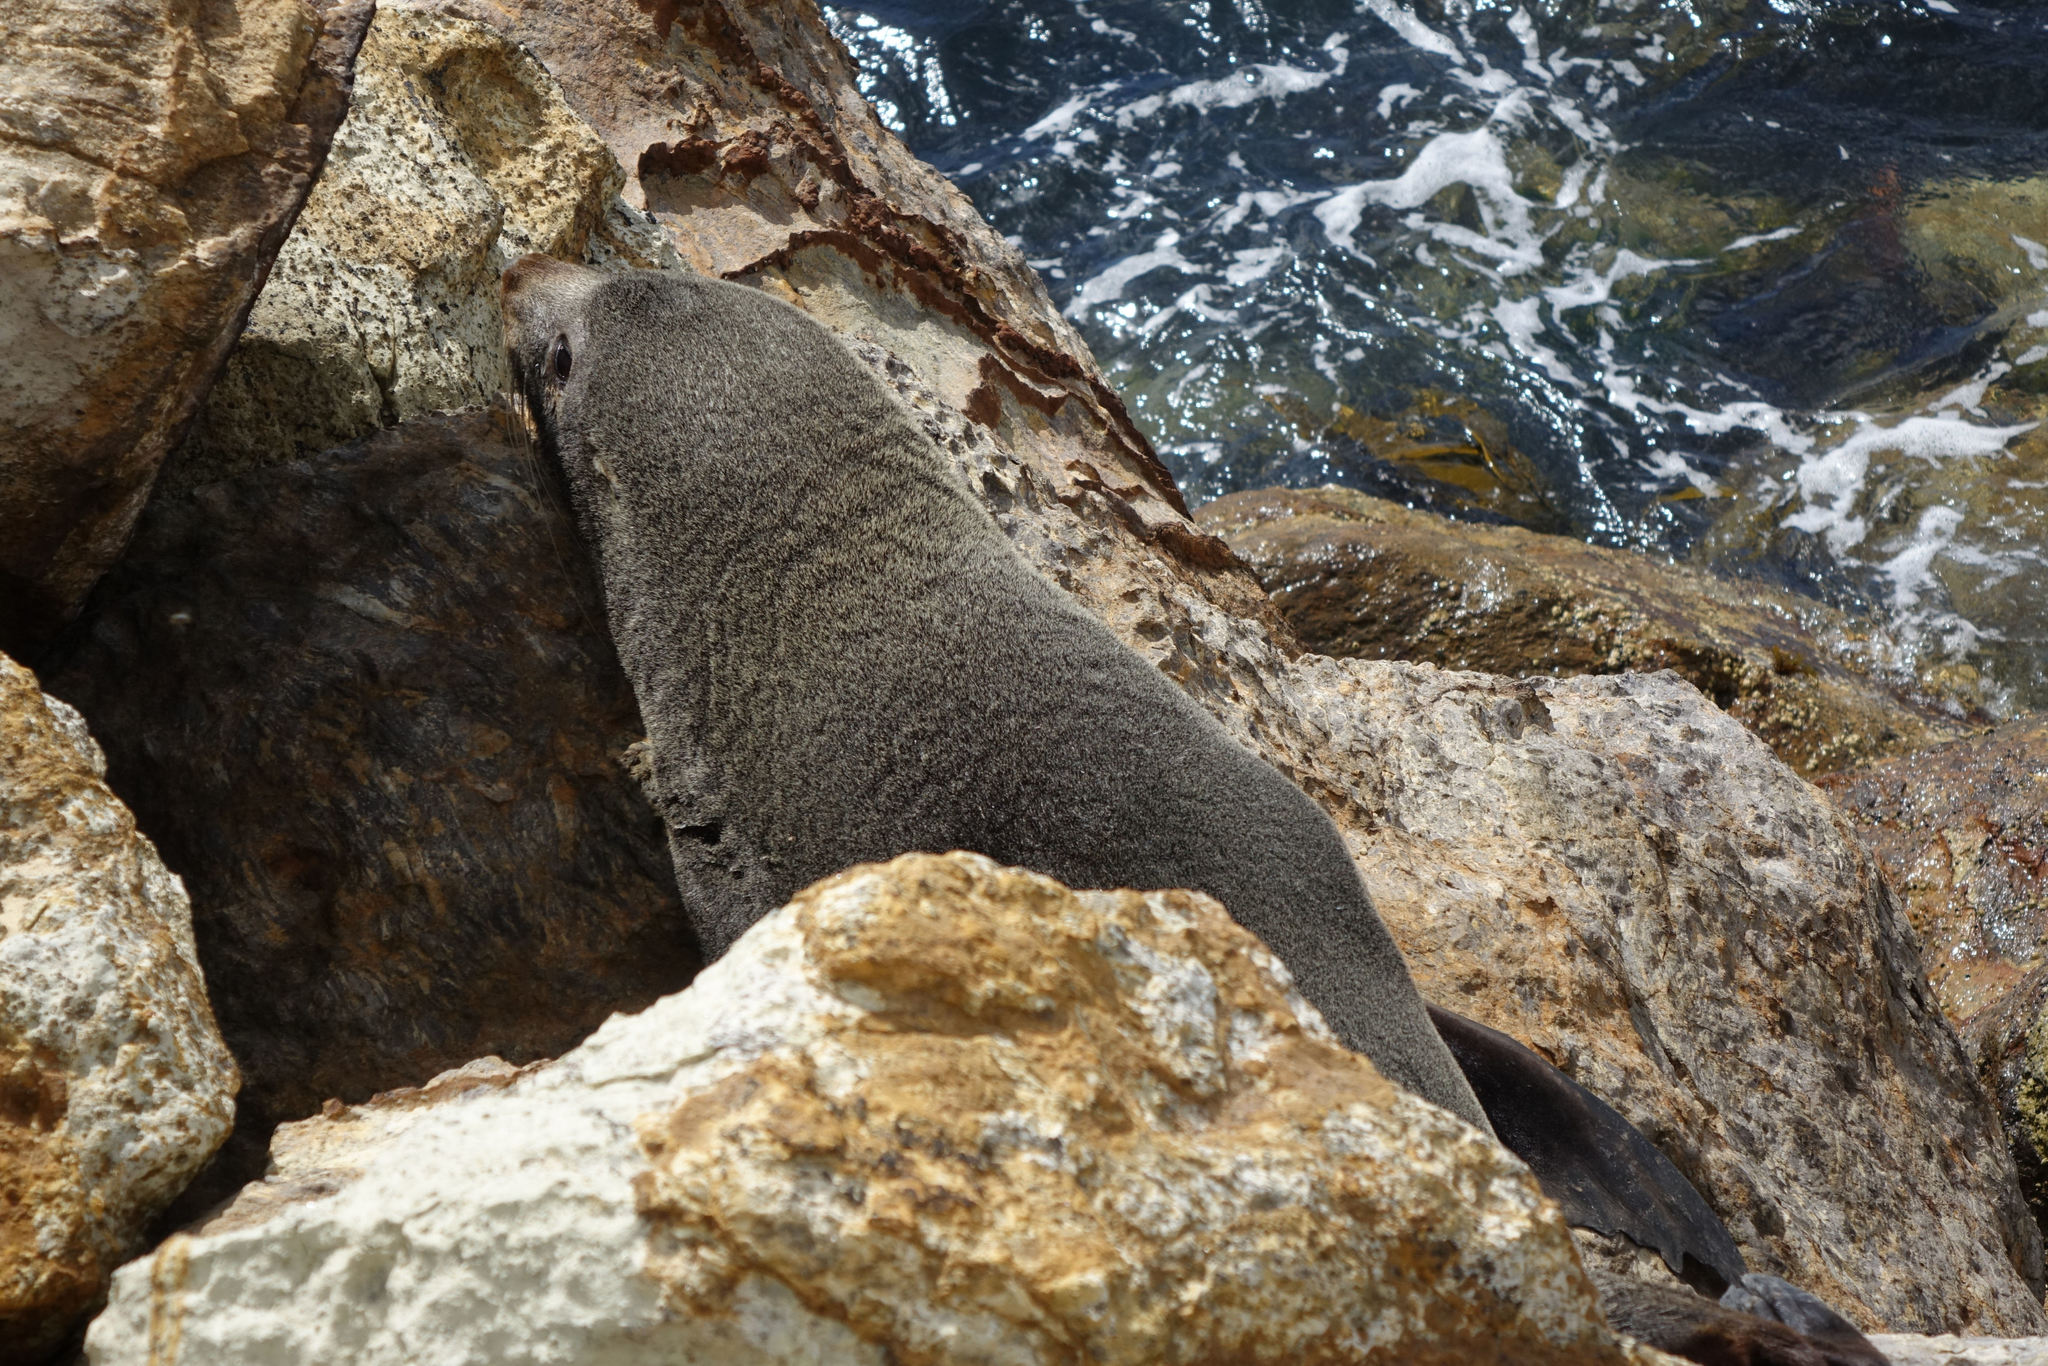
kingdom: Animalia
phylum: Chordata
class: Mammalia
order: Carnivora
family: Otariidae
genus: Arctocephalus
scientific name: Arctocephalus forsteri
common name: New zealand fur seal
